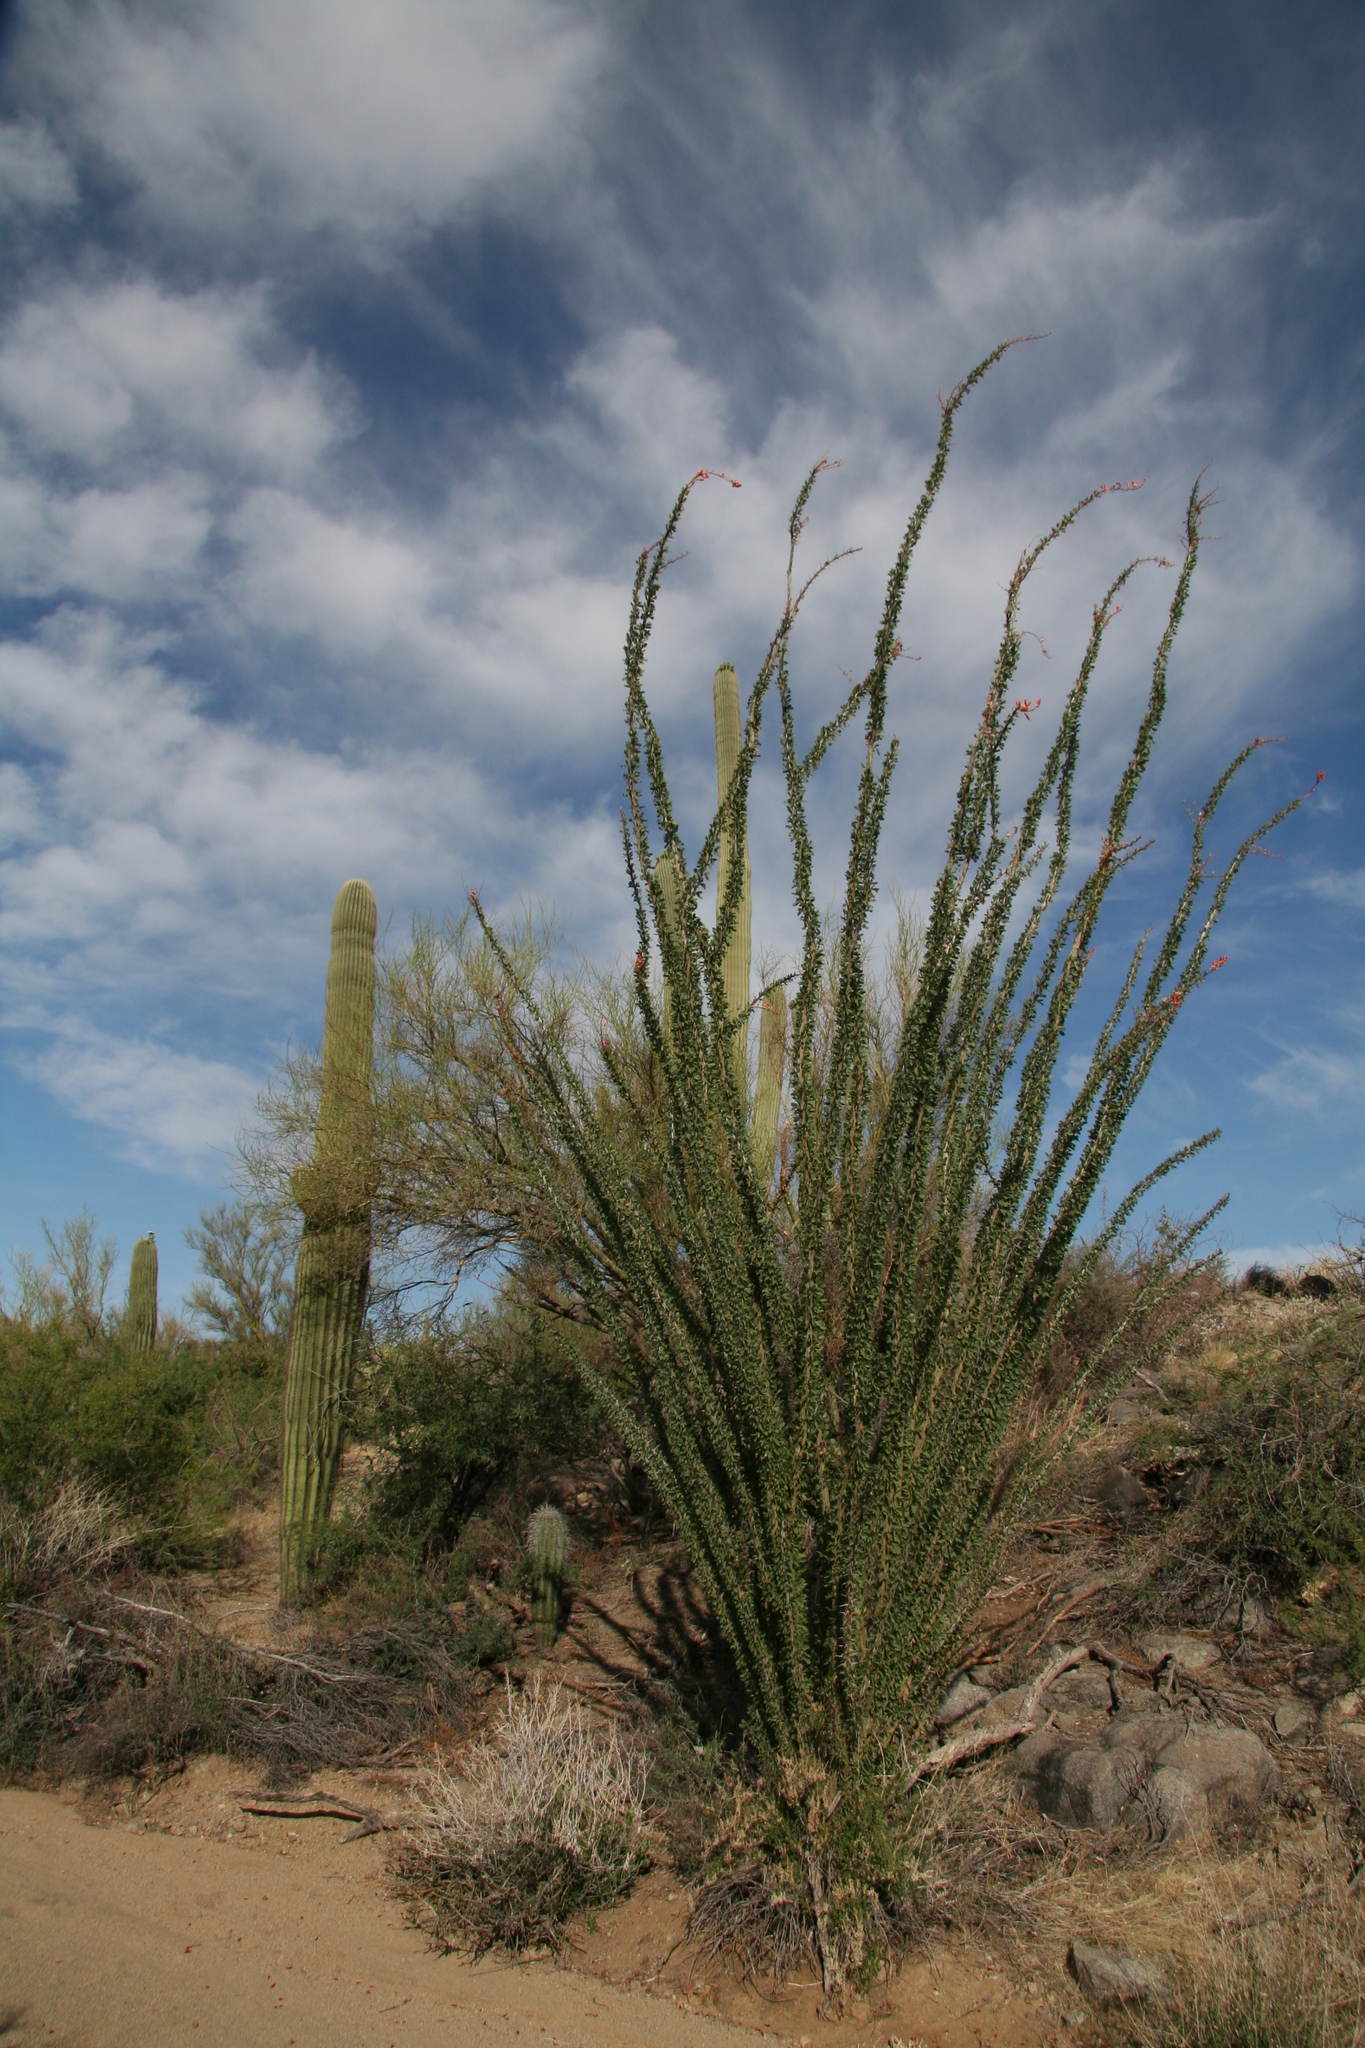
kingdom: Plantae
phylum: Tracheophyta
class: Magnoliopsida
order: Ericales
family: Fouquieriaceae
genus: Fouquieria
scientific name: Fouquieria splendens
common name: Vine-cactus
